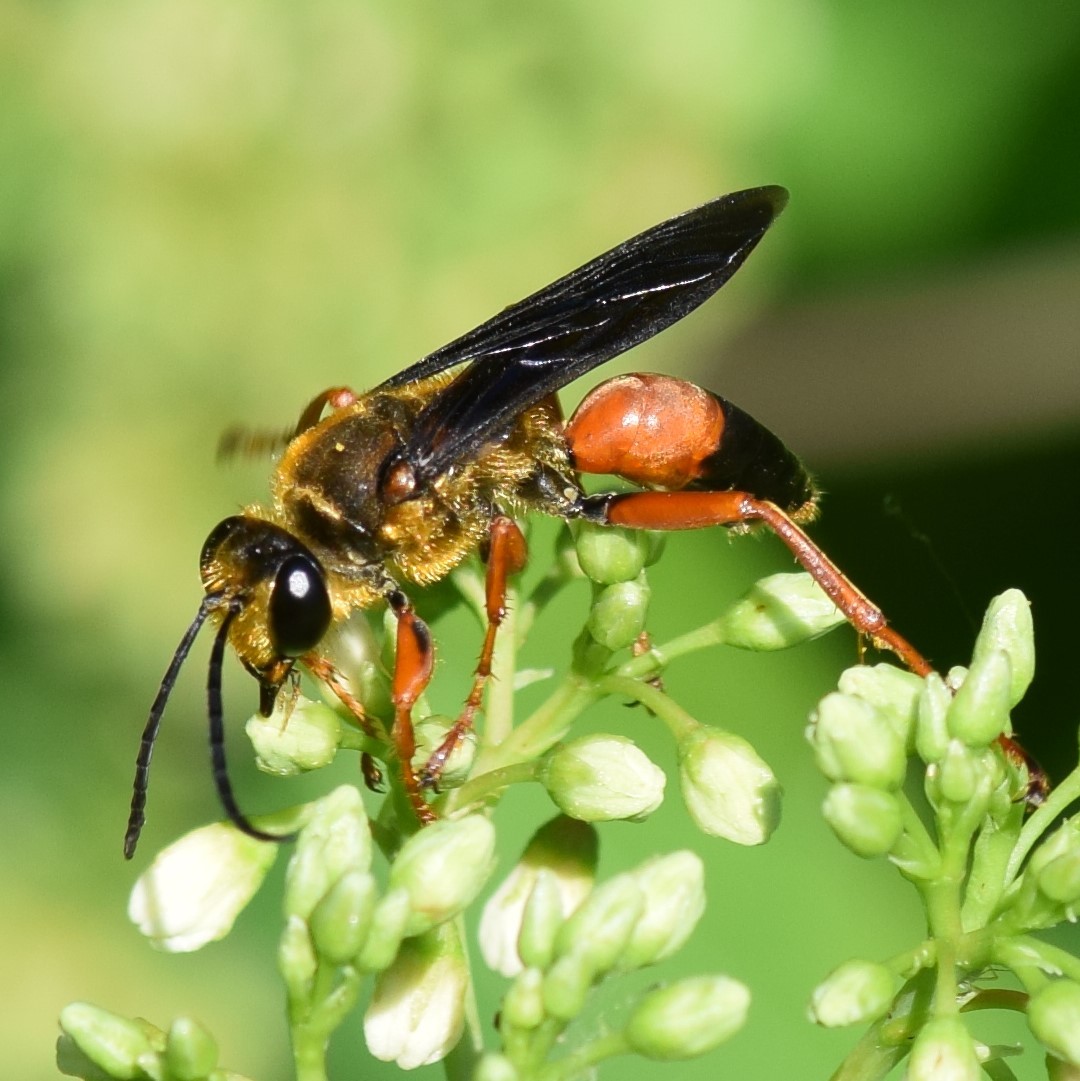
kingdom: Animalia
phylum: Arthropoda
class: Insecta
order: Hymenoptera
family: Sphecidae
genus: Sphex
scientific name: Sphex ichneumoneus
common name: Great golden digger wasp
